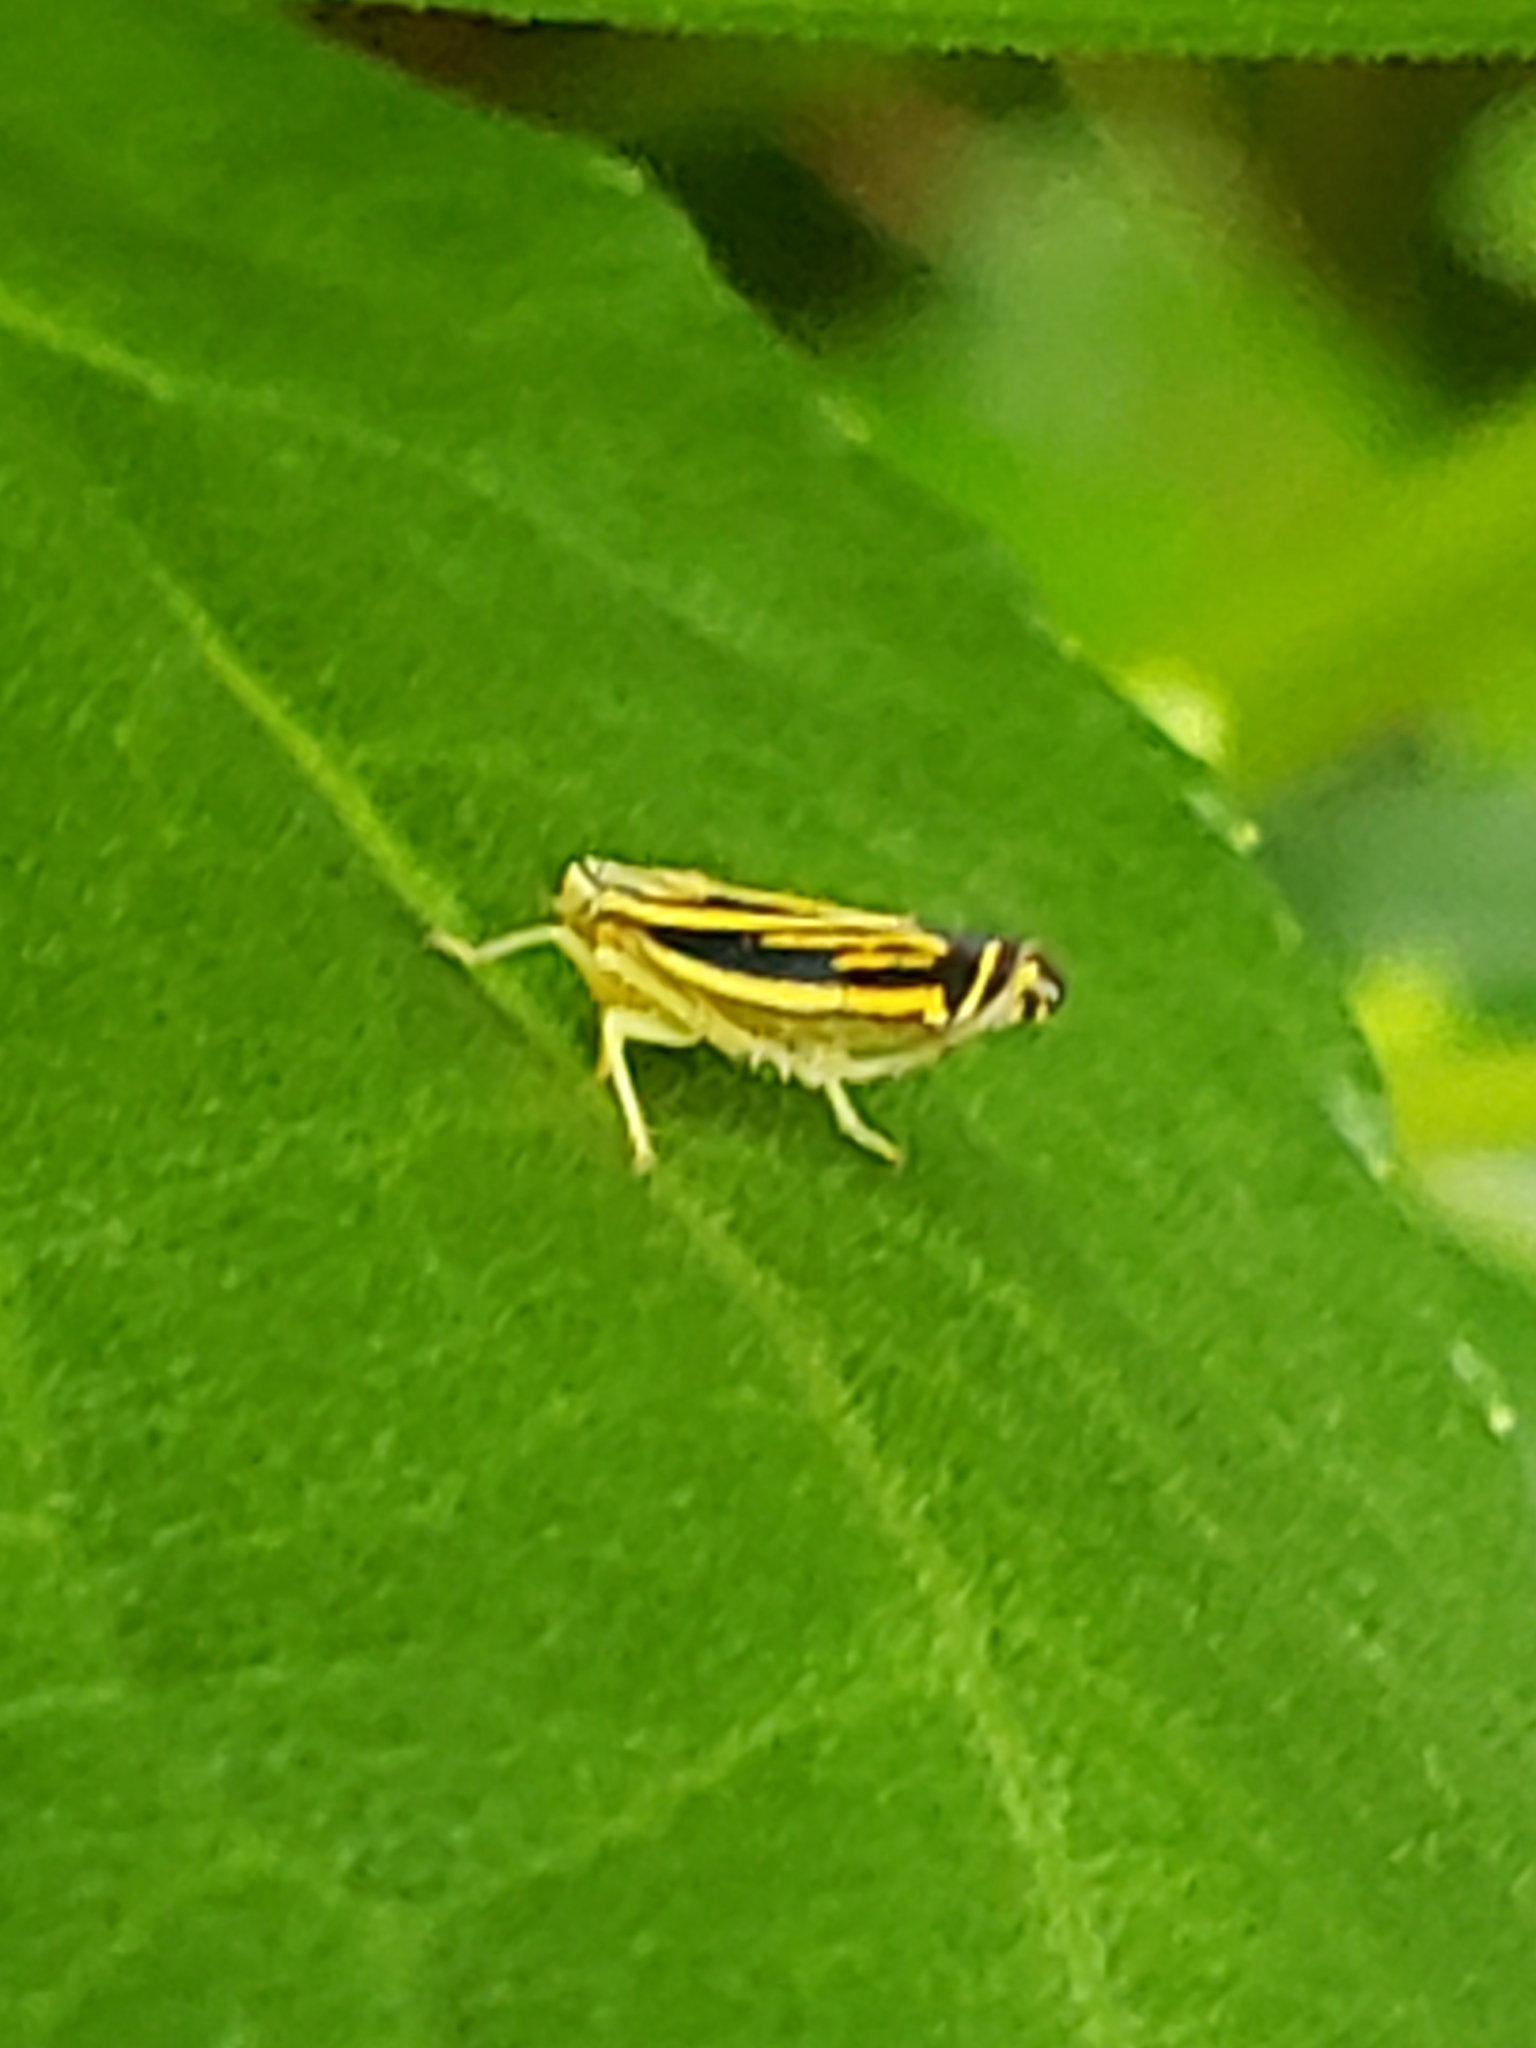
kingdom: Animalia
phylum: Arthropoda
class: Insecta
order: Hemiptera
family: Cicadellidae
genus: Sibovia
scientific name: Sibovia occatoria
